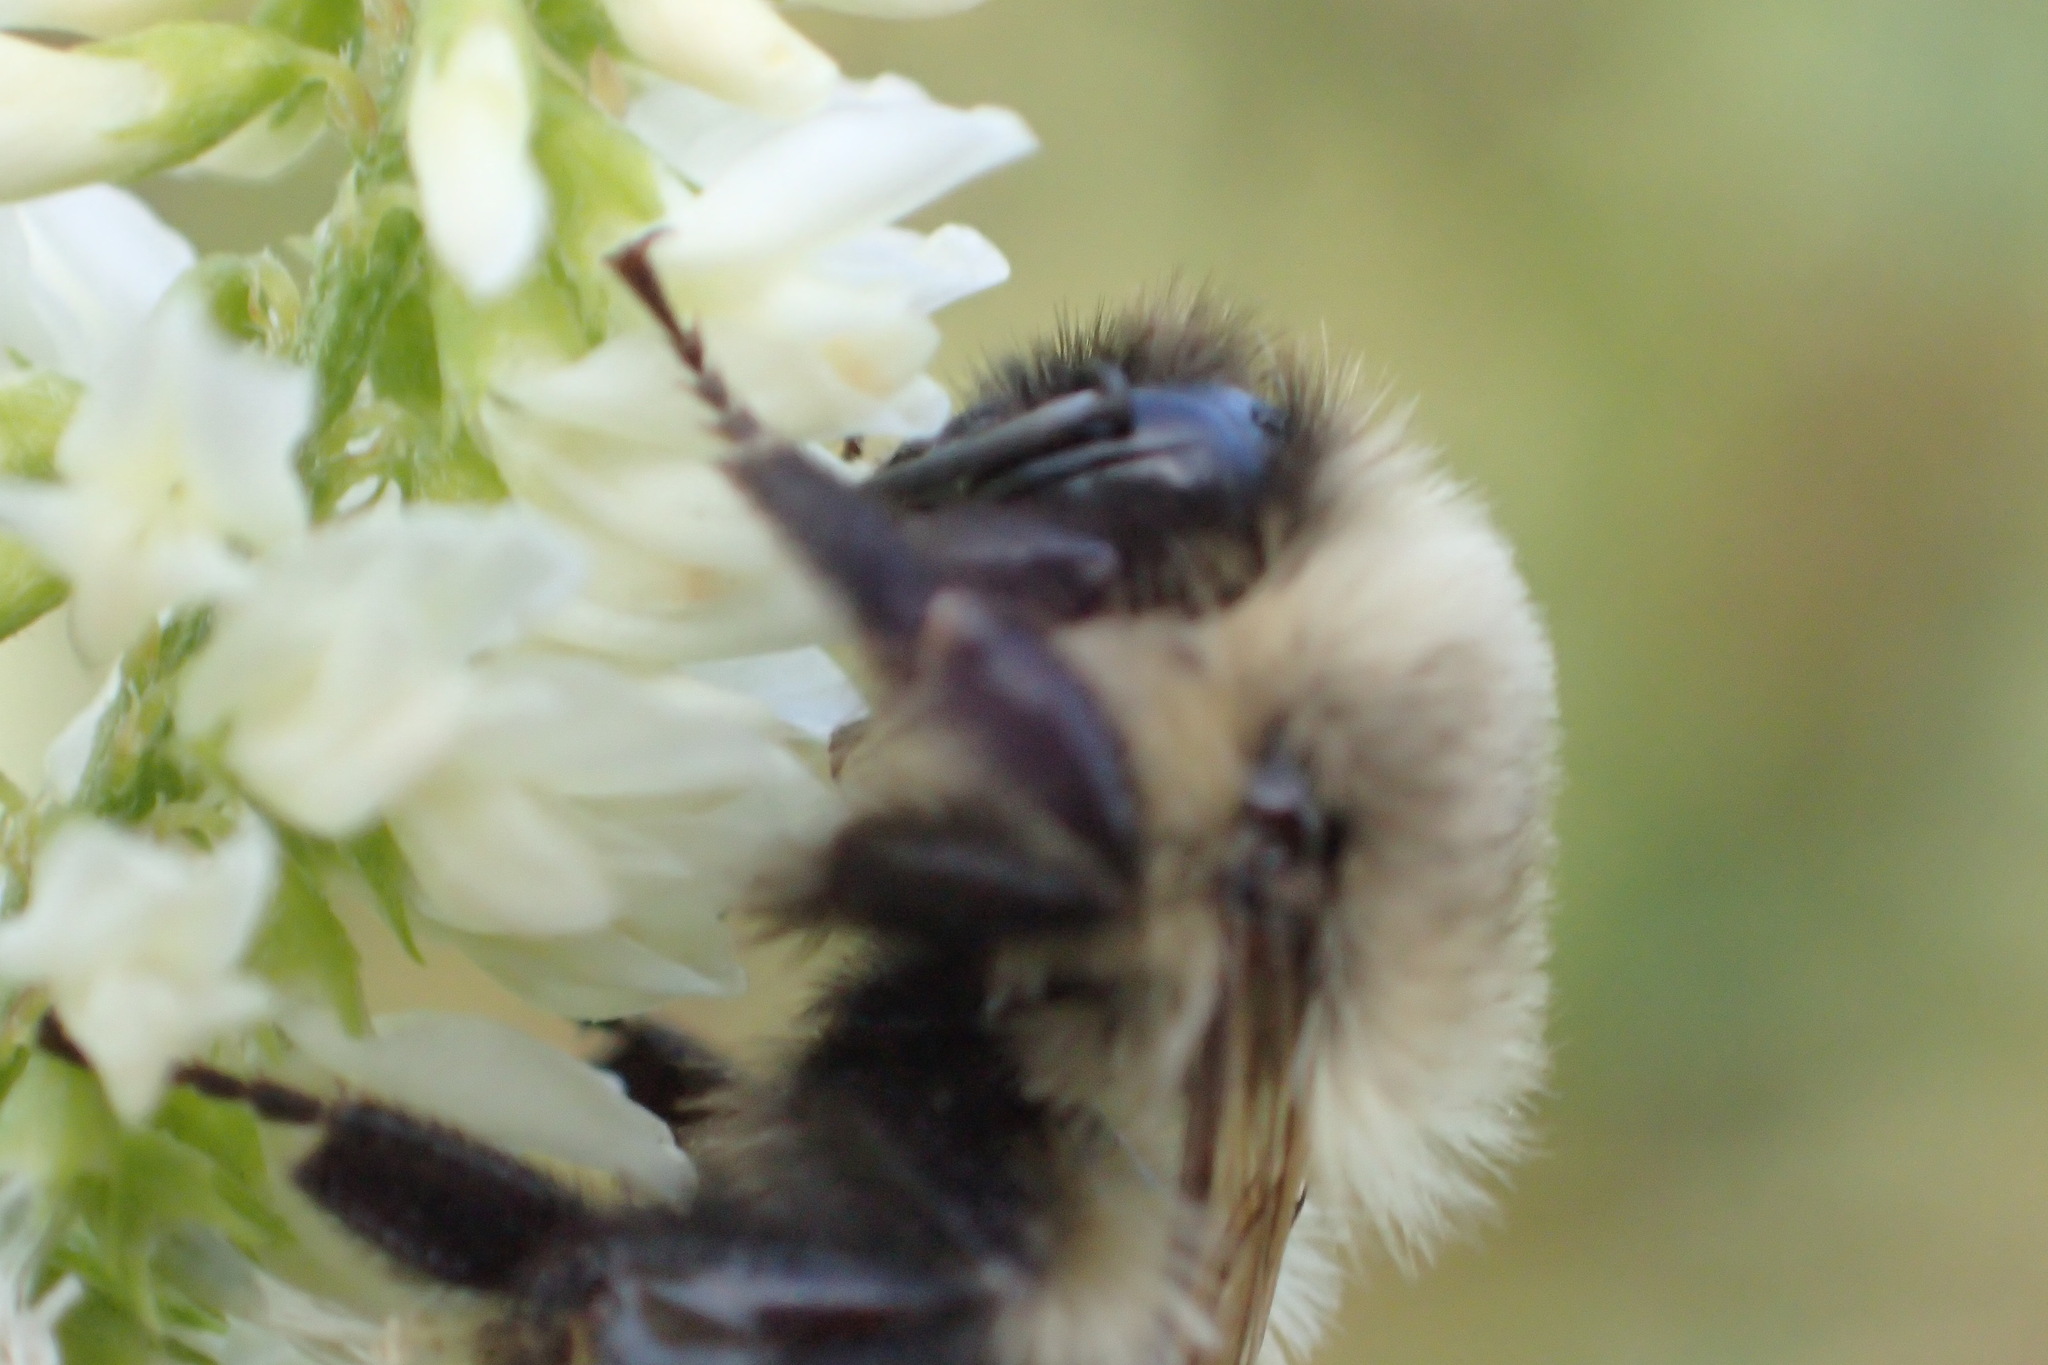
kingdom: Animalia
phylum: Arthropoda
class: Insecta
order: Hymenoptera
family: Apidae
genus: Bombus
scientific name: Bombus impatiens
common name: Common eastern bumble bee
